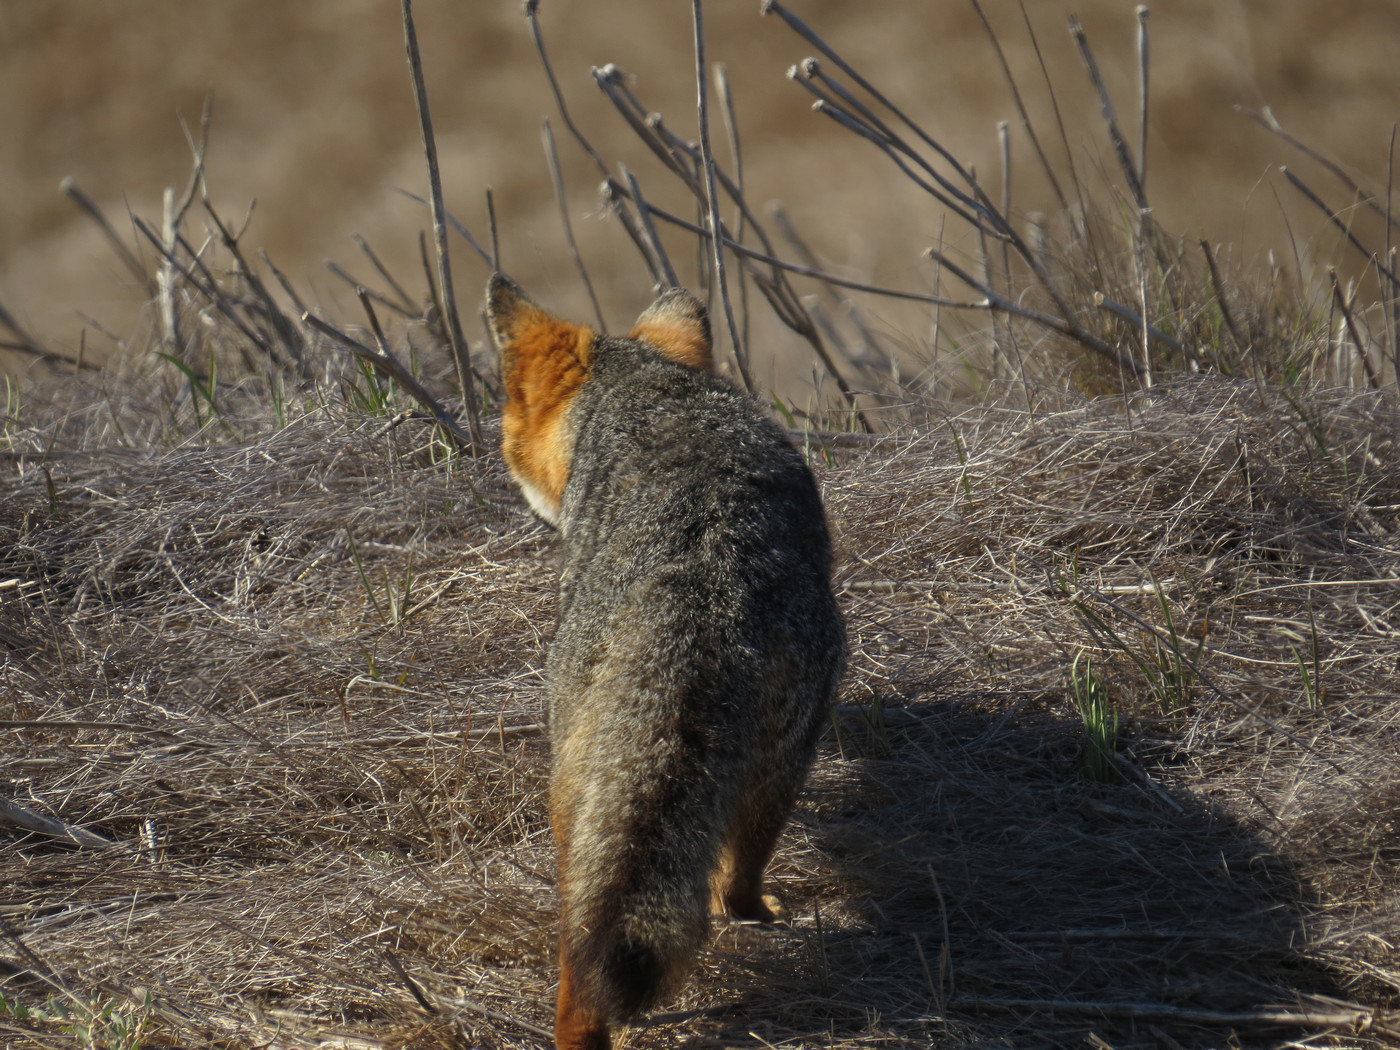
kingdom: Animalia
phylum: Chordata
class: Mammalia
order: Carnivora
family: Canidae
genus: Urocyon
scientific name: Urocyon littoralis
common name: Island gray fox
